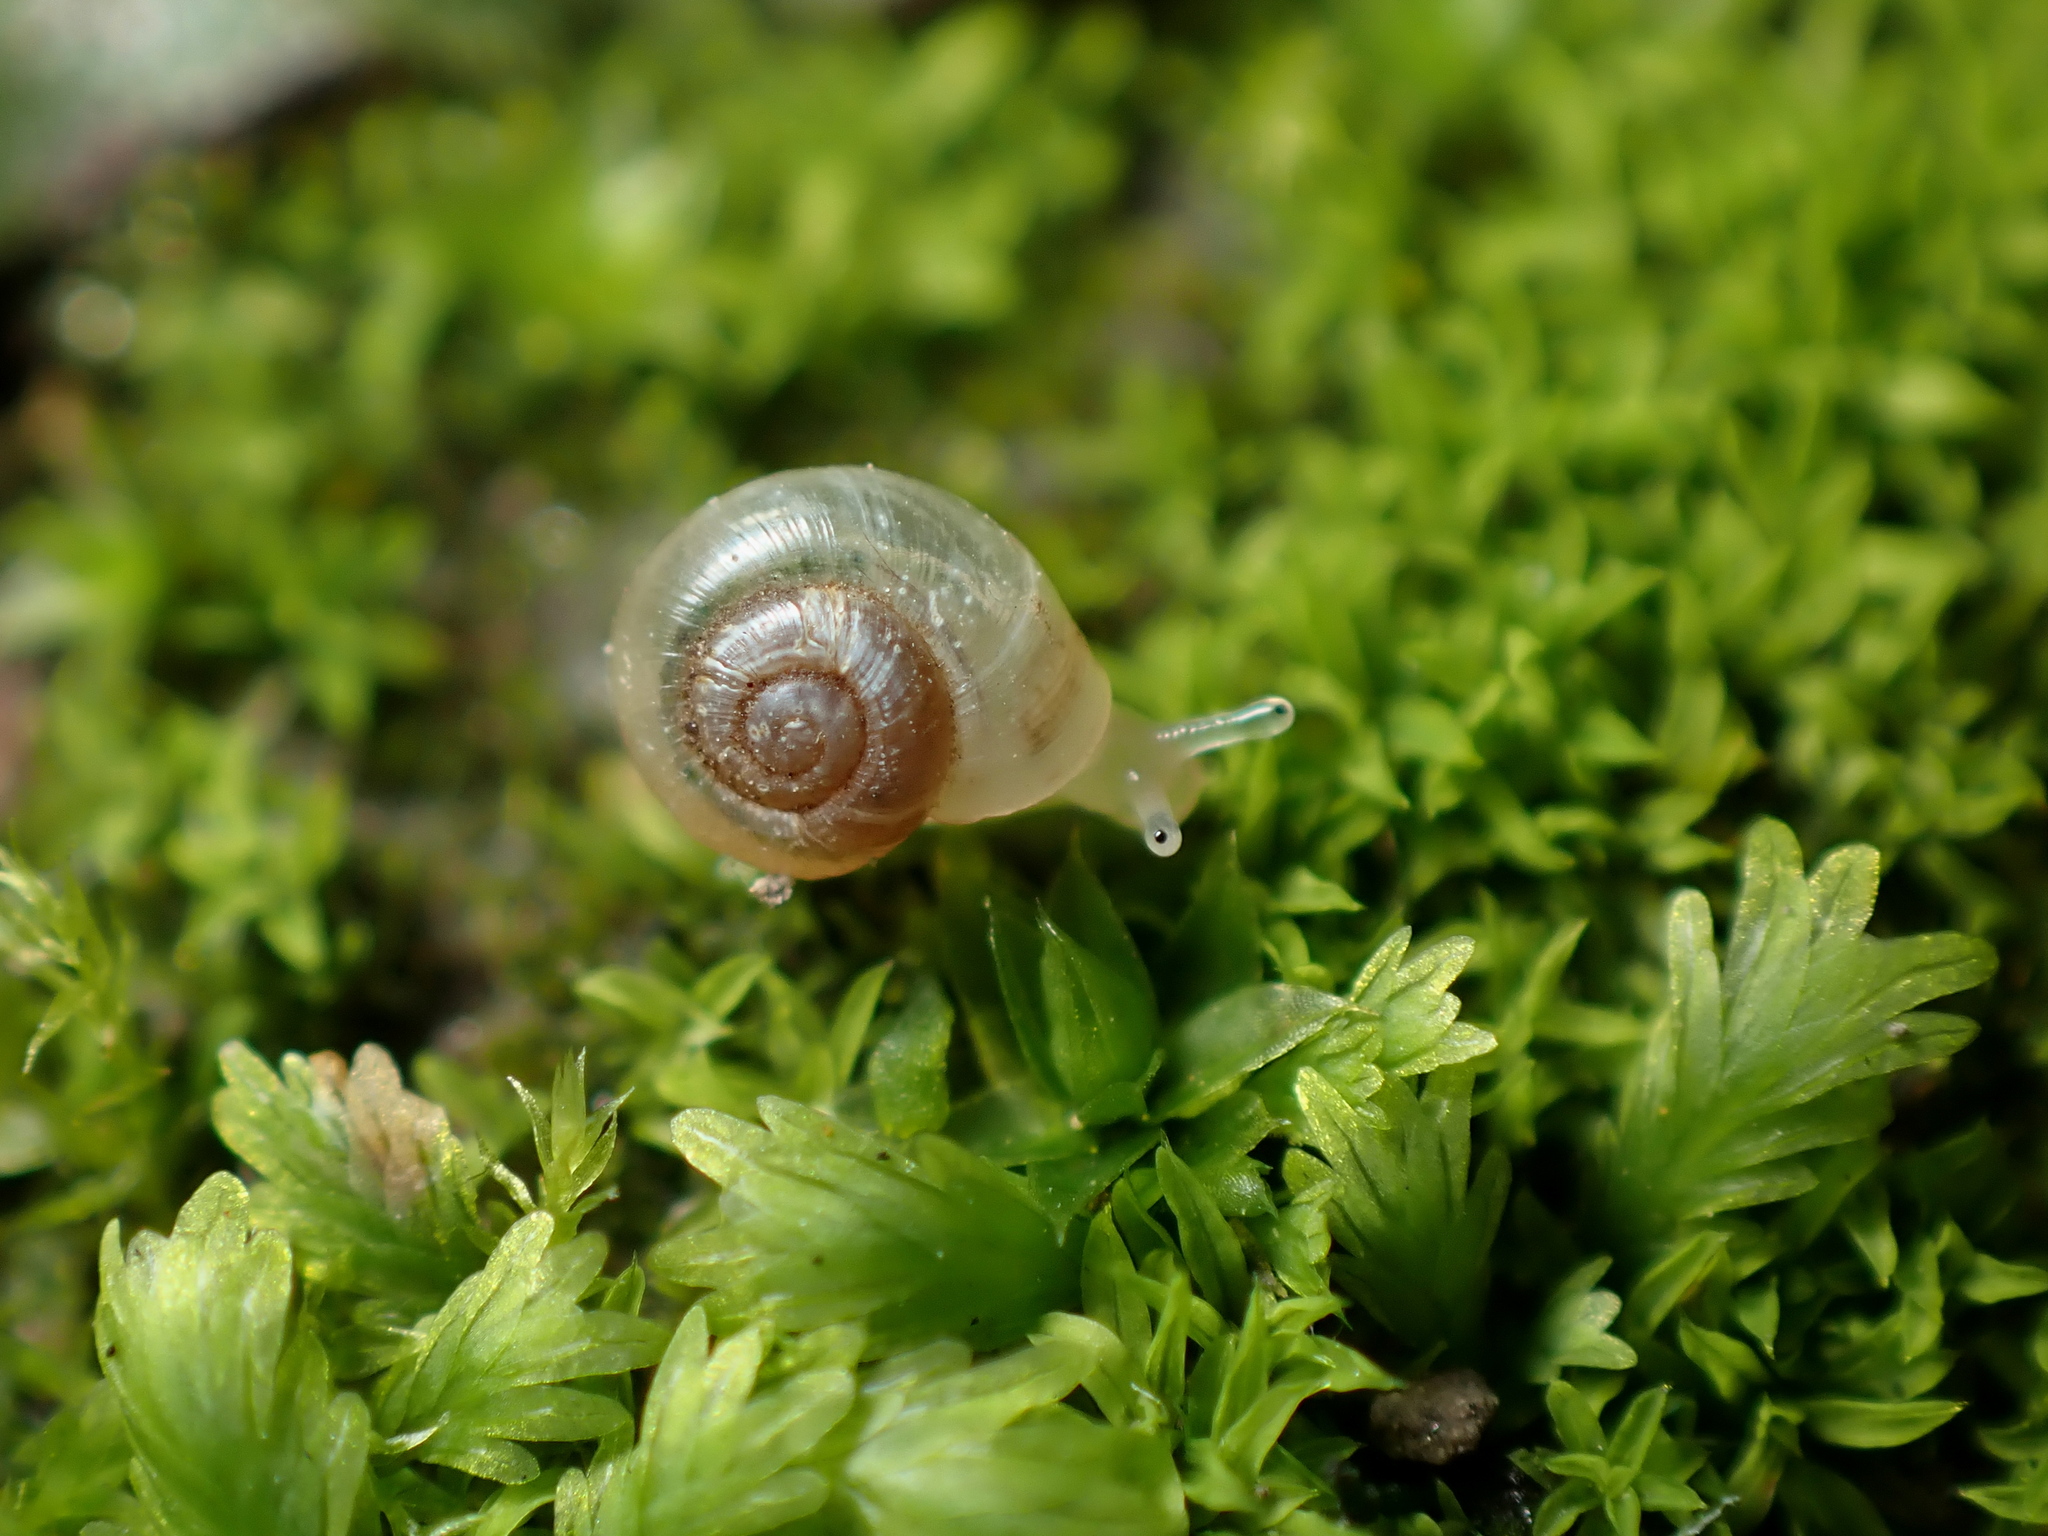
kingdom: Animalia
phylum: Mollusca
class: Gastropoda
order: Stylommatophora
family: Valloniidae
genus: Vallonia
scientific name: Vallonia excentrica
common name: Eccentric grass snail
